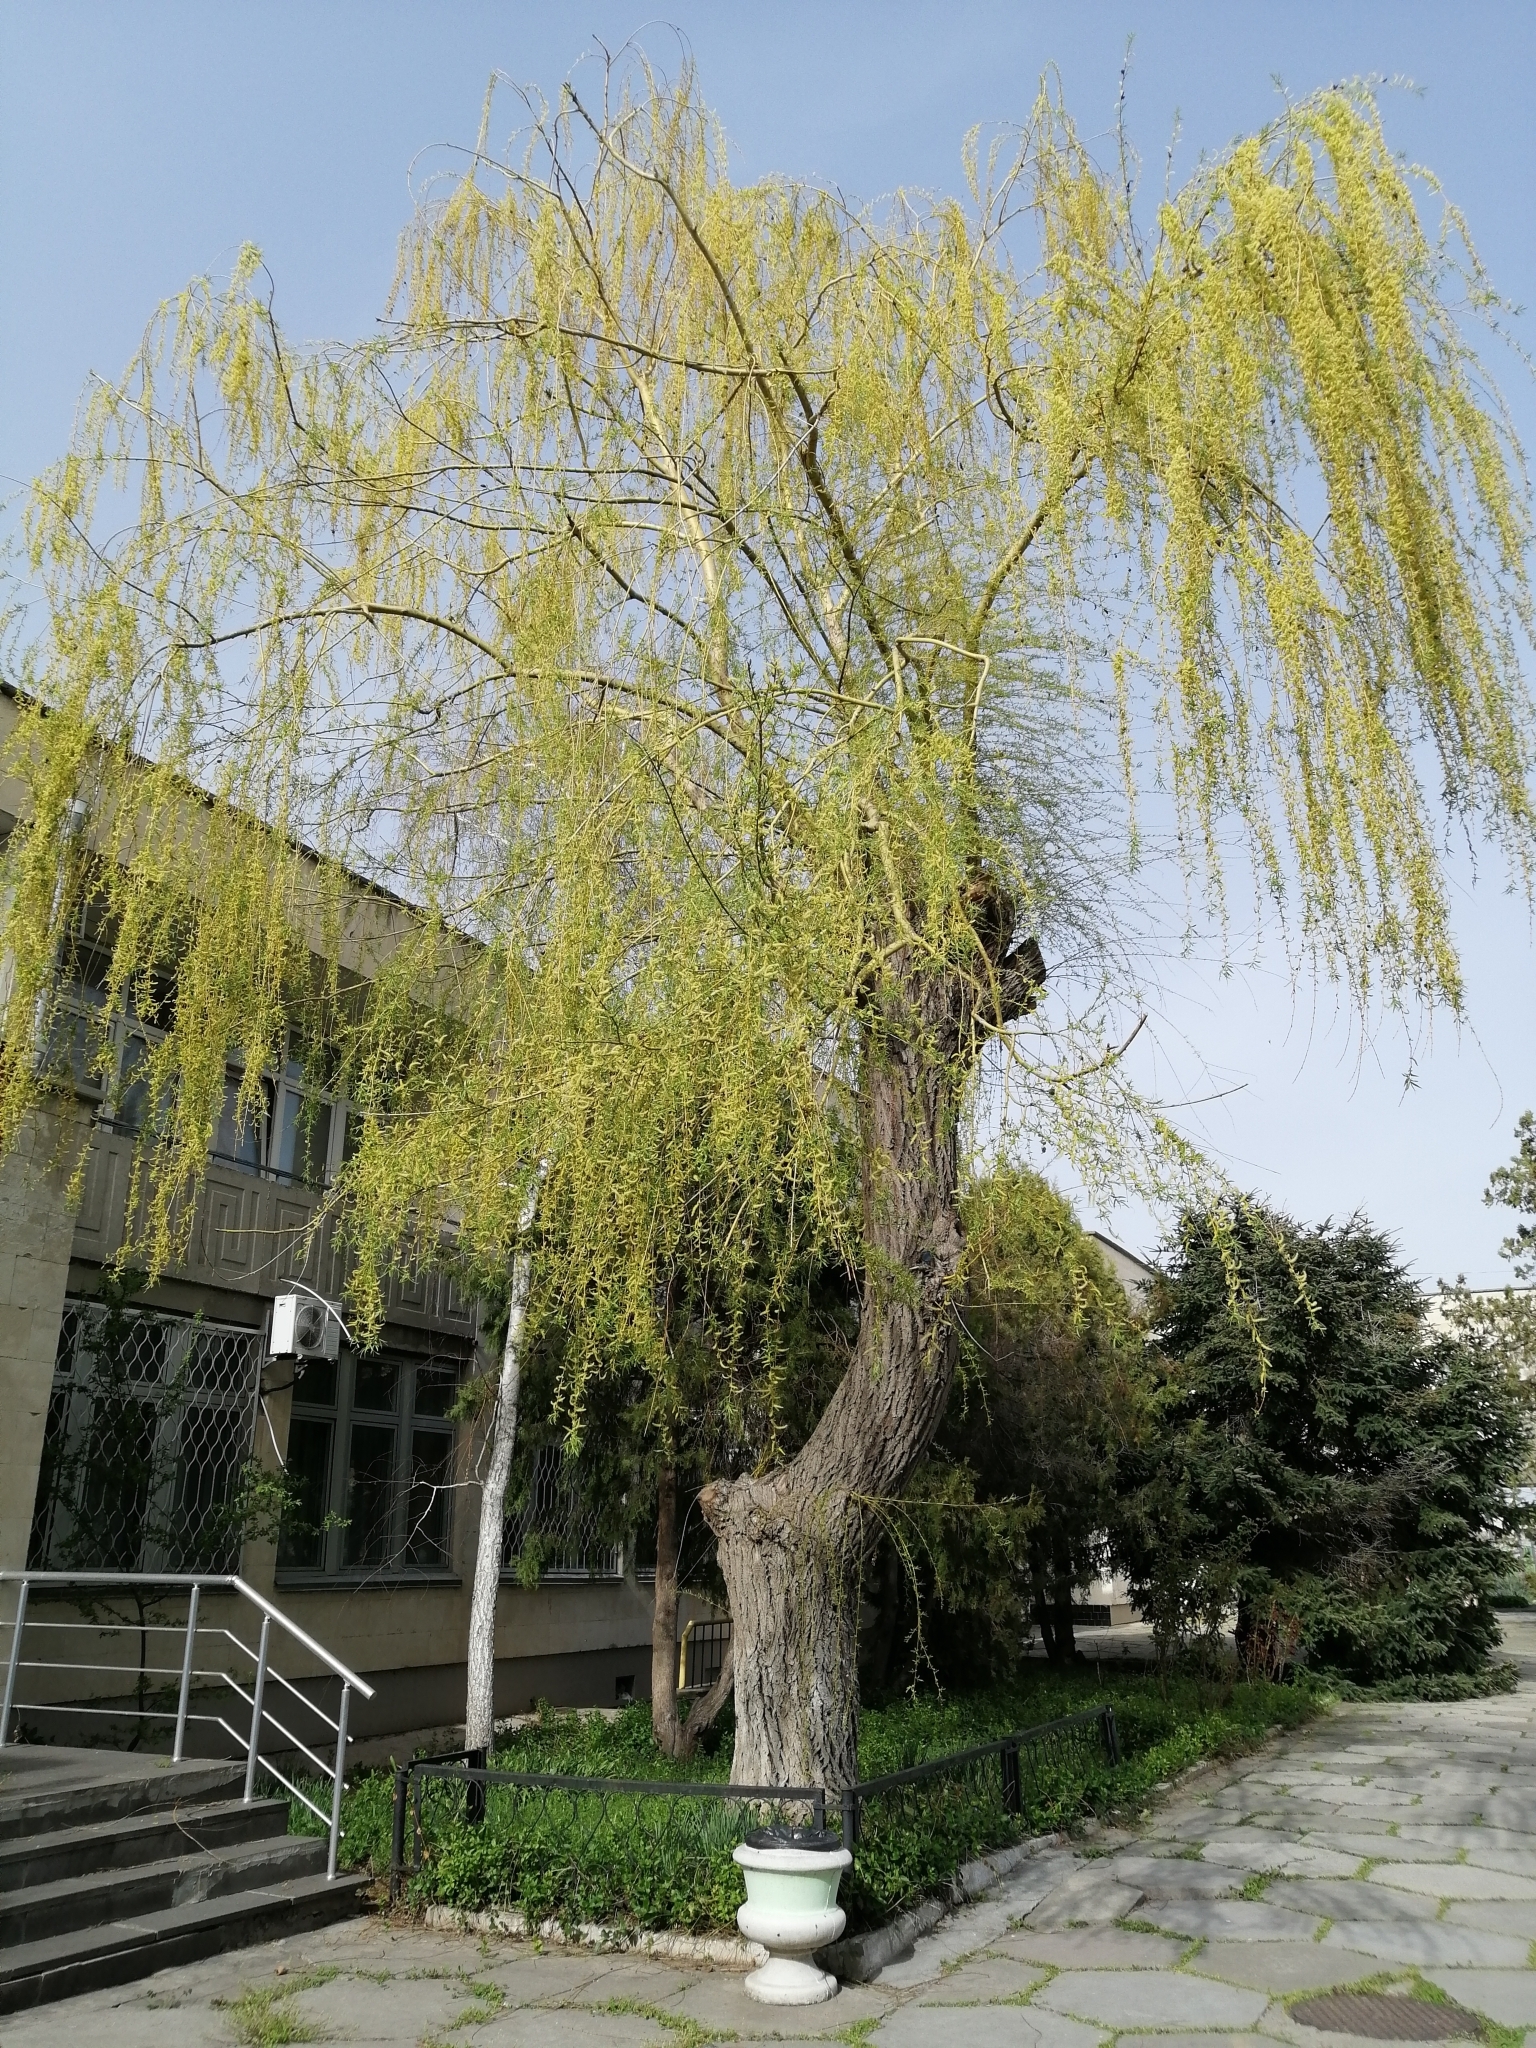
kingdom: Plantae
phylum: Tracheophyta
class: Magnoliopsida
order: Malpighiales
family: Salicaceae
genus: Salix
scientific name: Salix babylonica
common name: Weeping willow
